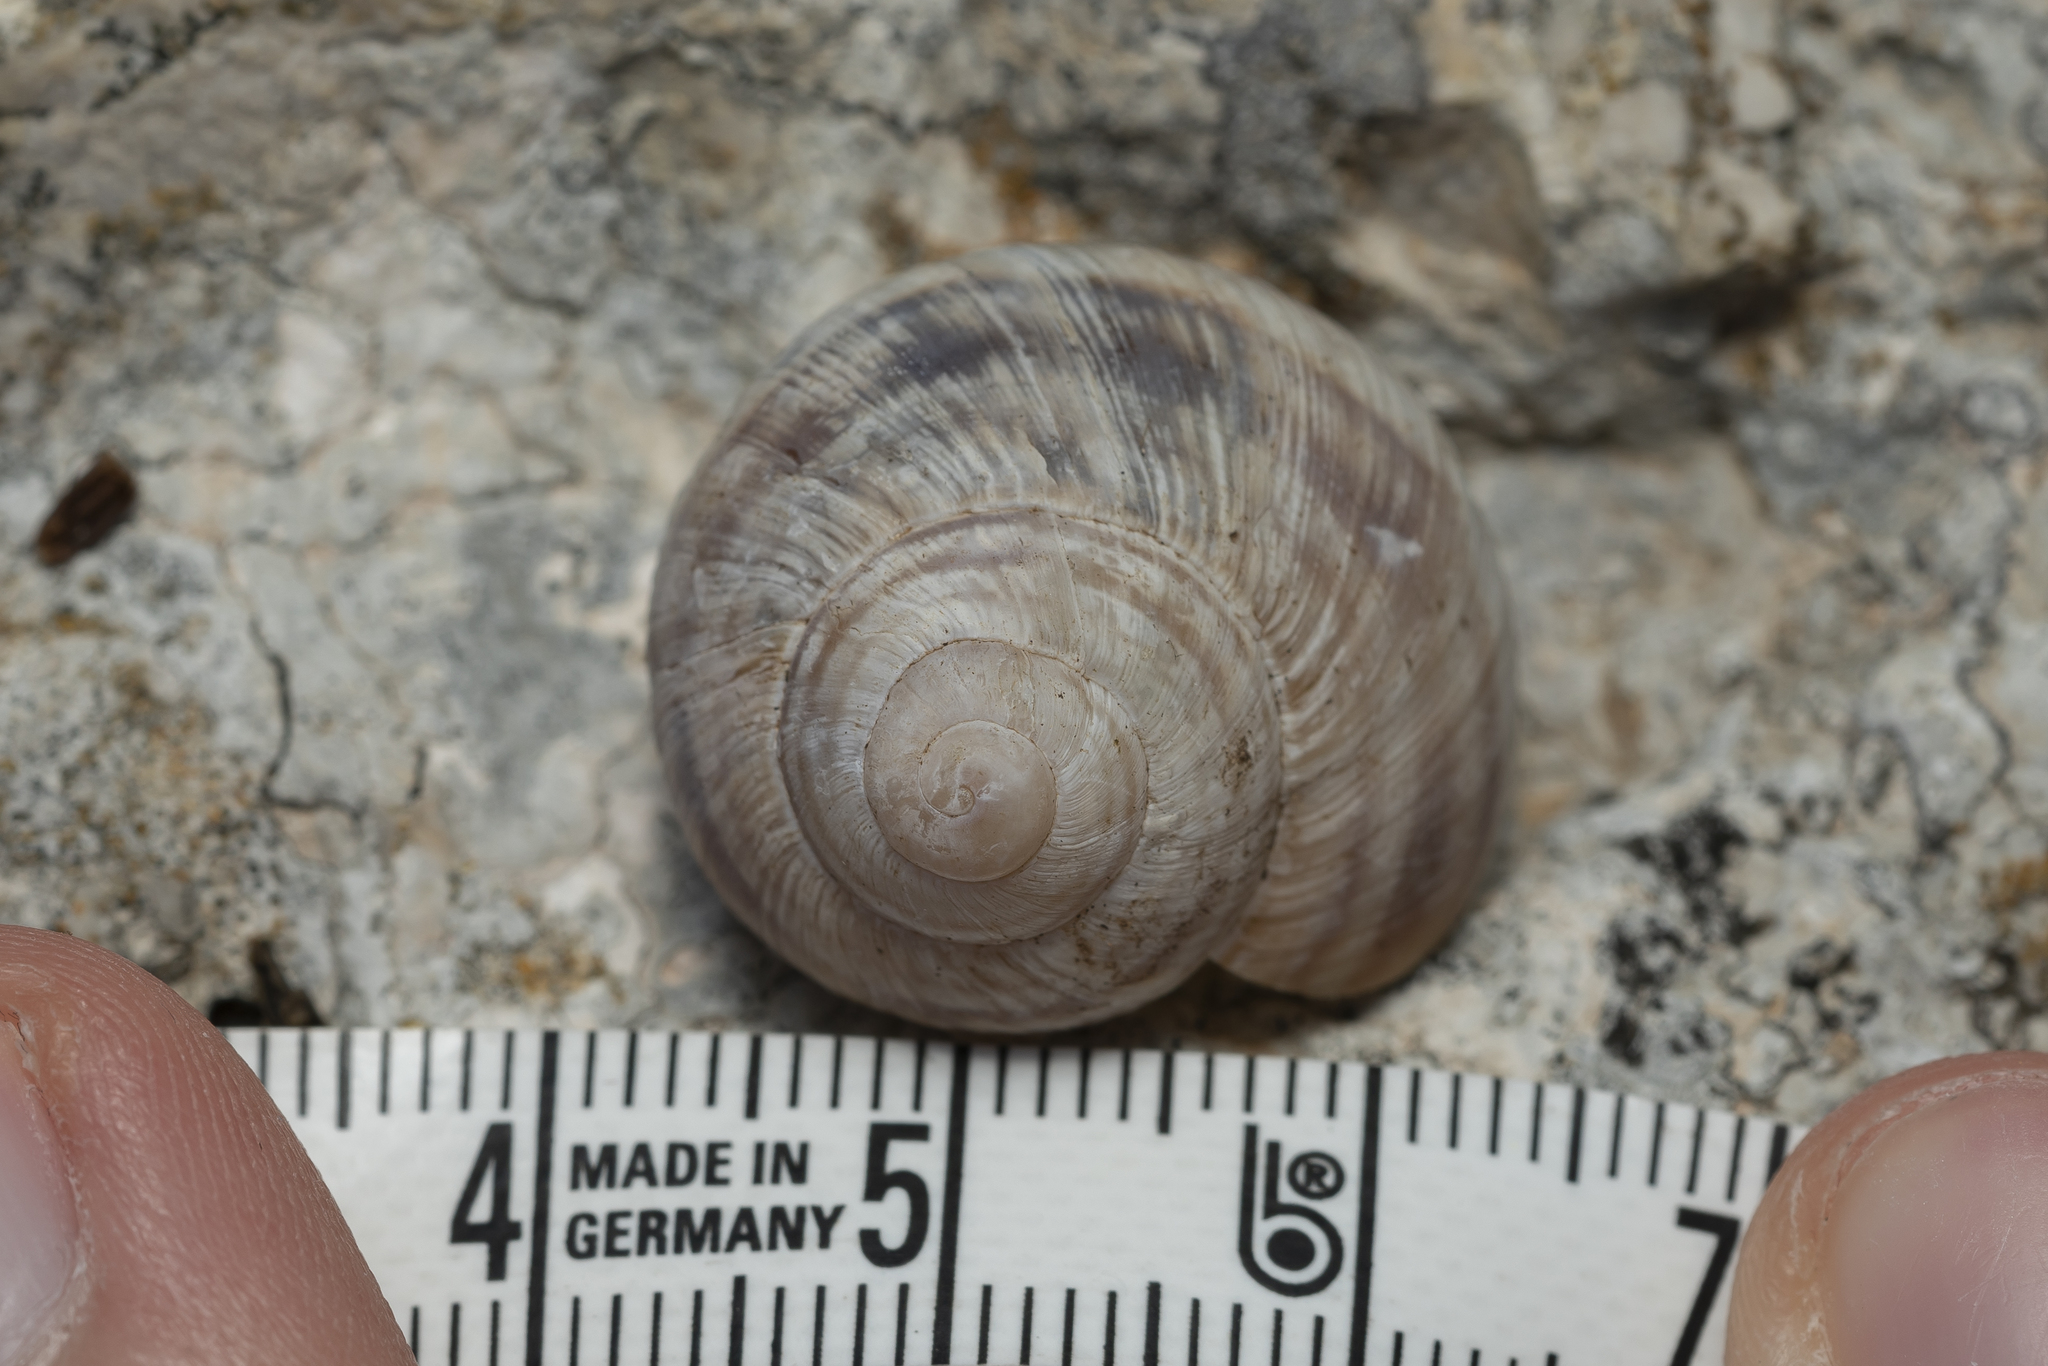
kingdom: Animalia
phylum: Mollusca
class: Gastropoda
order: Stylommatophora
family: Helicidae
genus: Helix
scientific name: Helix fathallae
